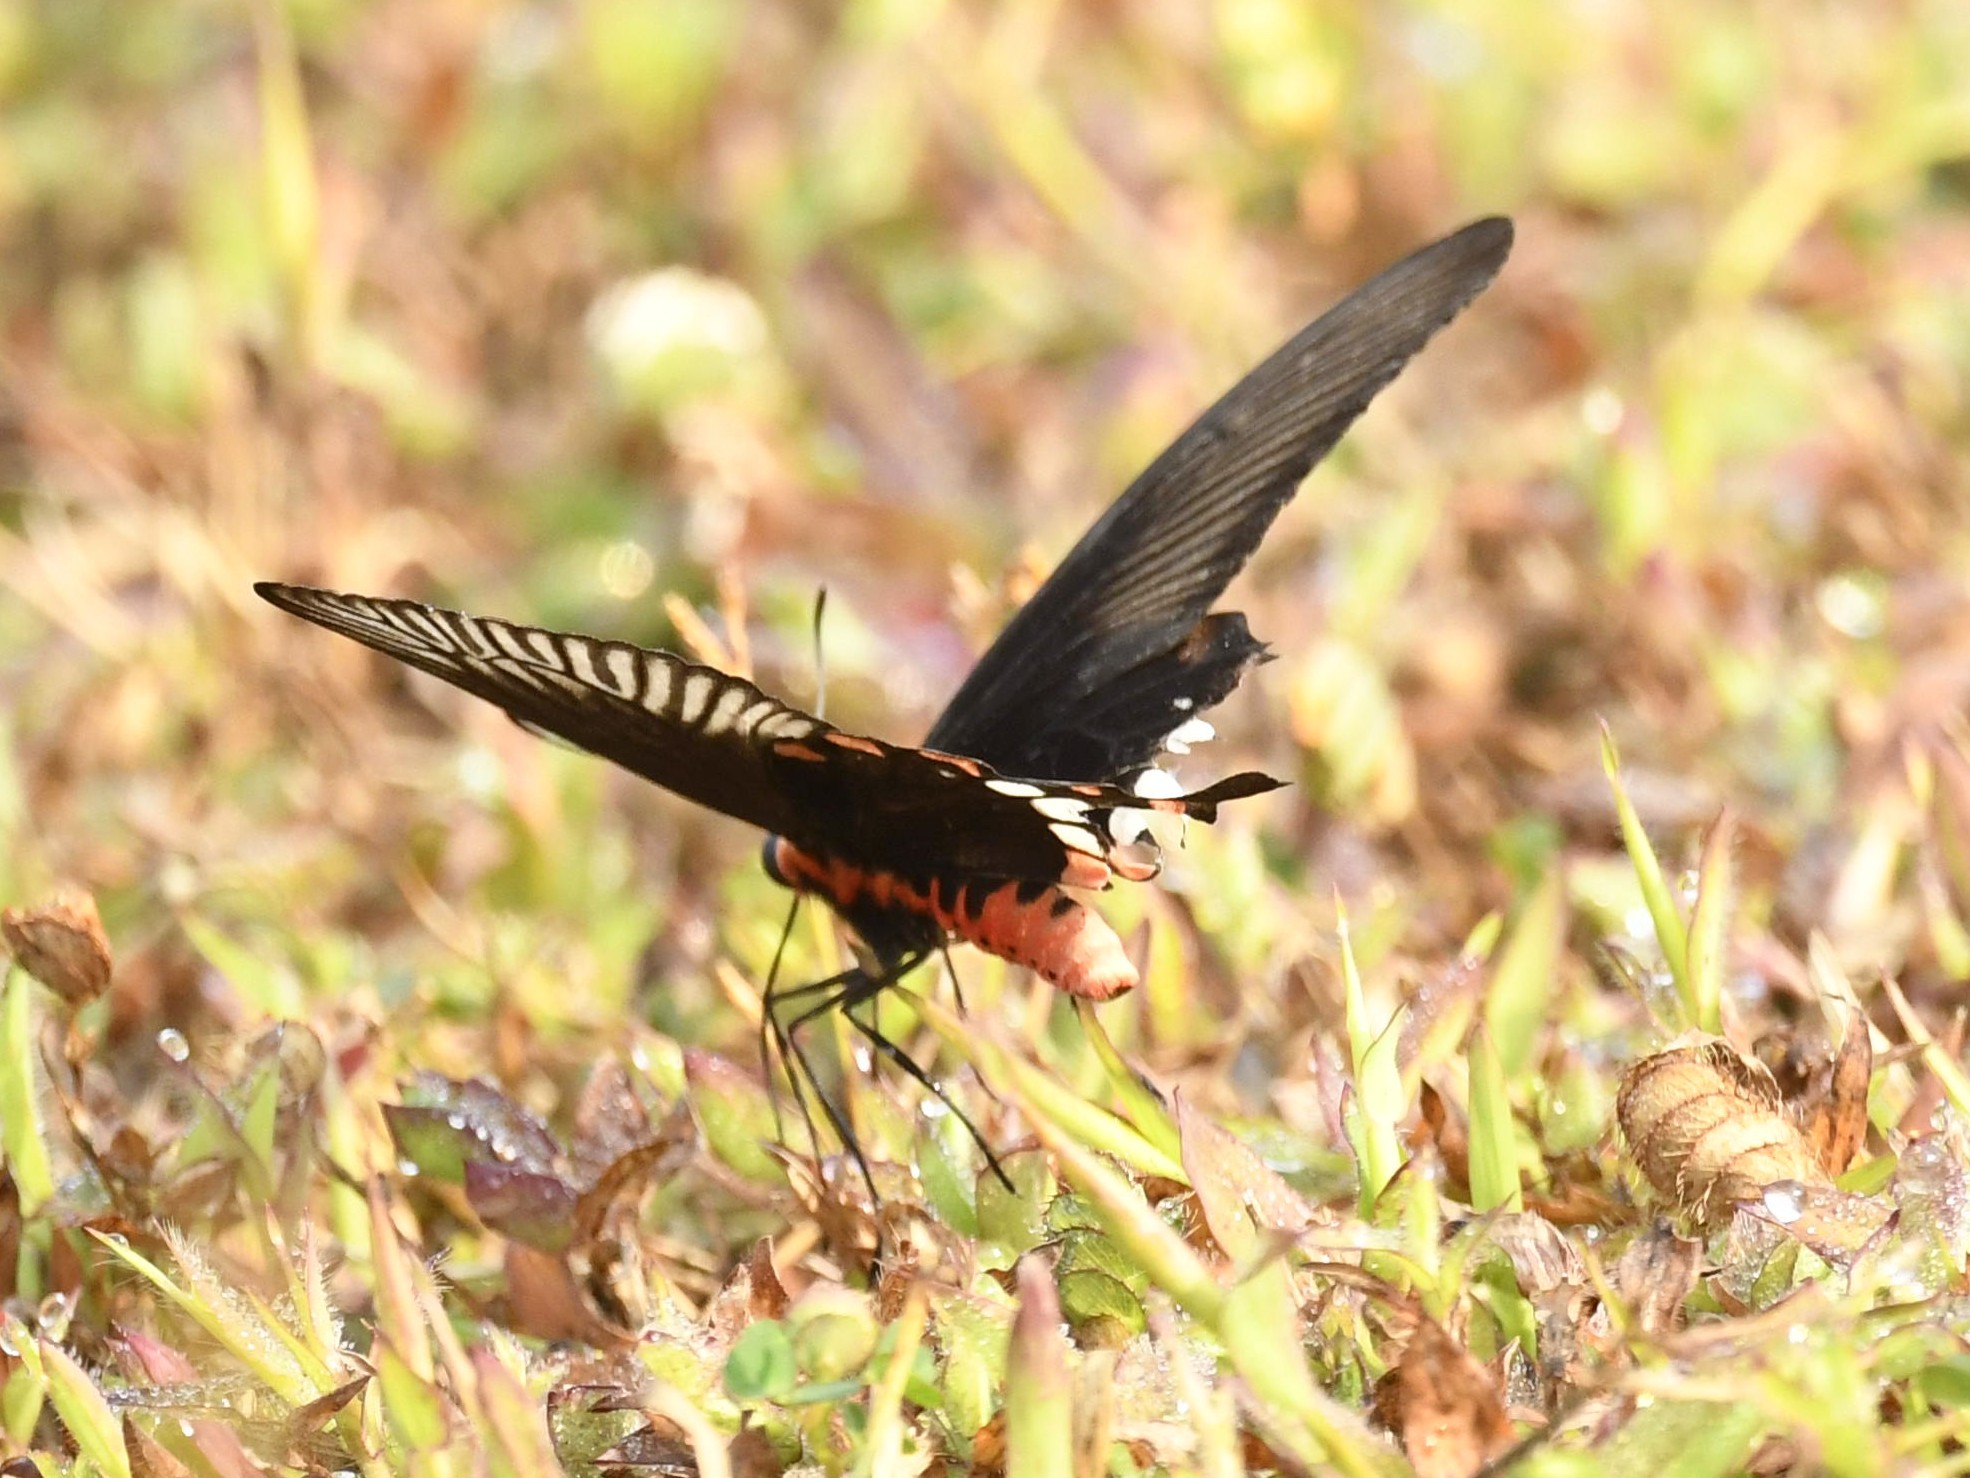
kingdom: Animalia
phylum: Arthropoda
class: Insecta
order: Lepidoptera
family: Papilionidae
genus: Pachliopta
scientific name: Pachliopta aristolochiae
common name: Common rose
